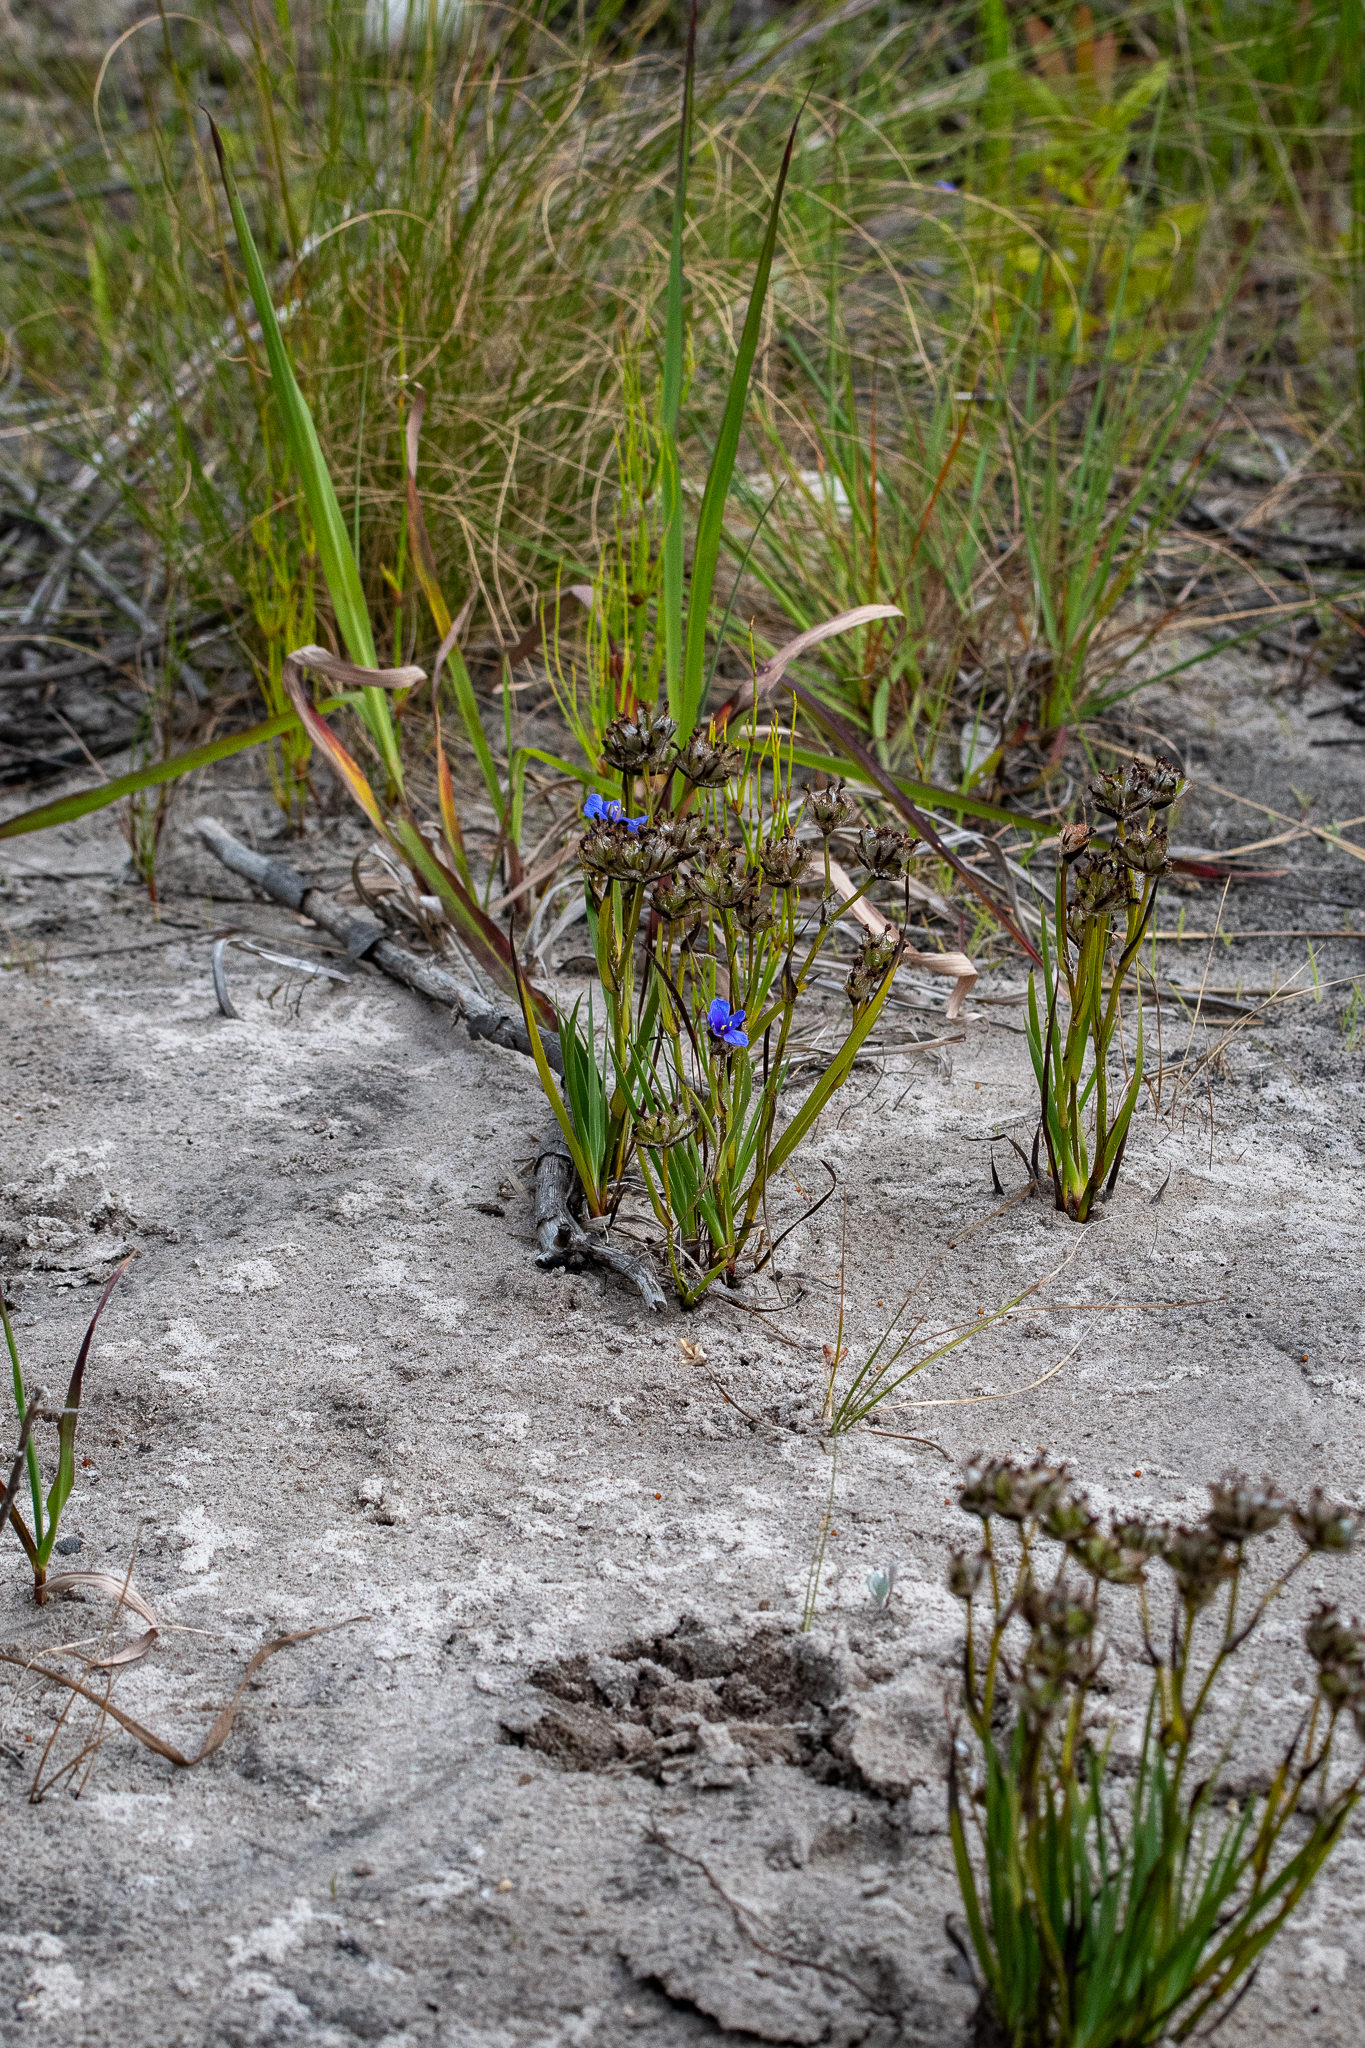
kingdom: Plantae
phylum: Tracheophyta
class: Liliopsida
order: Asparagales
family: Iridaceae
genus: Aristea
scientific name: Aristea africana
